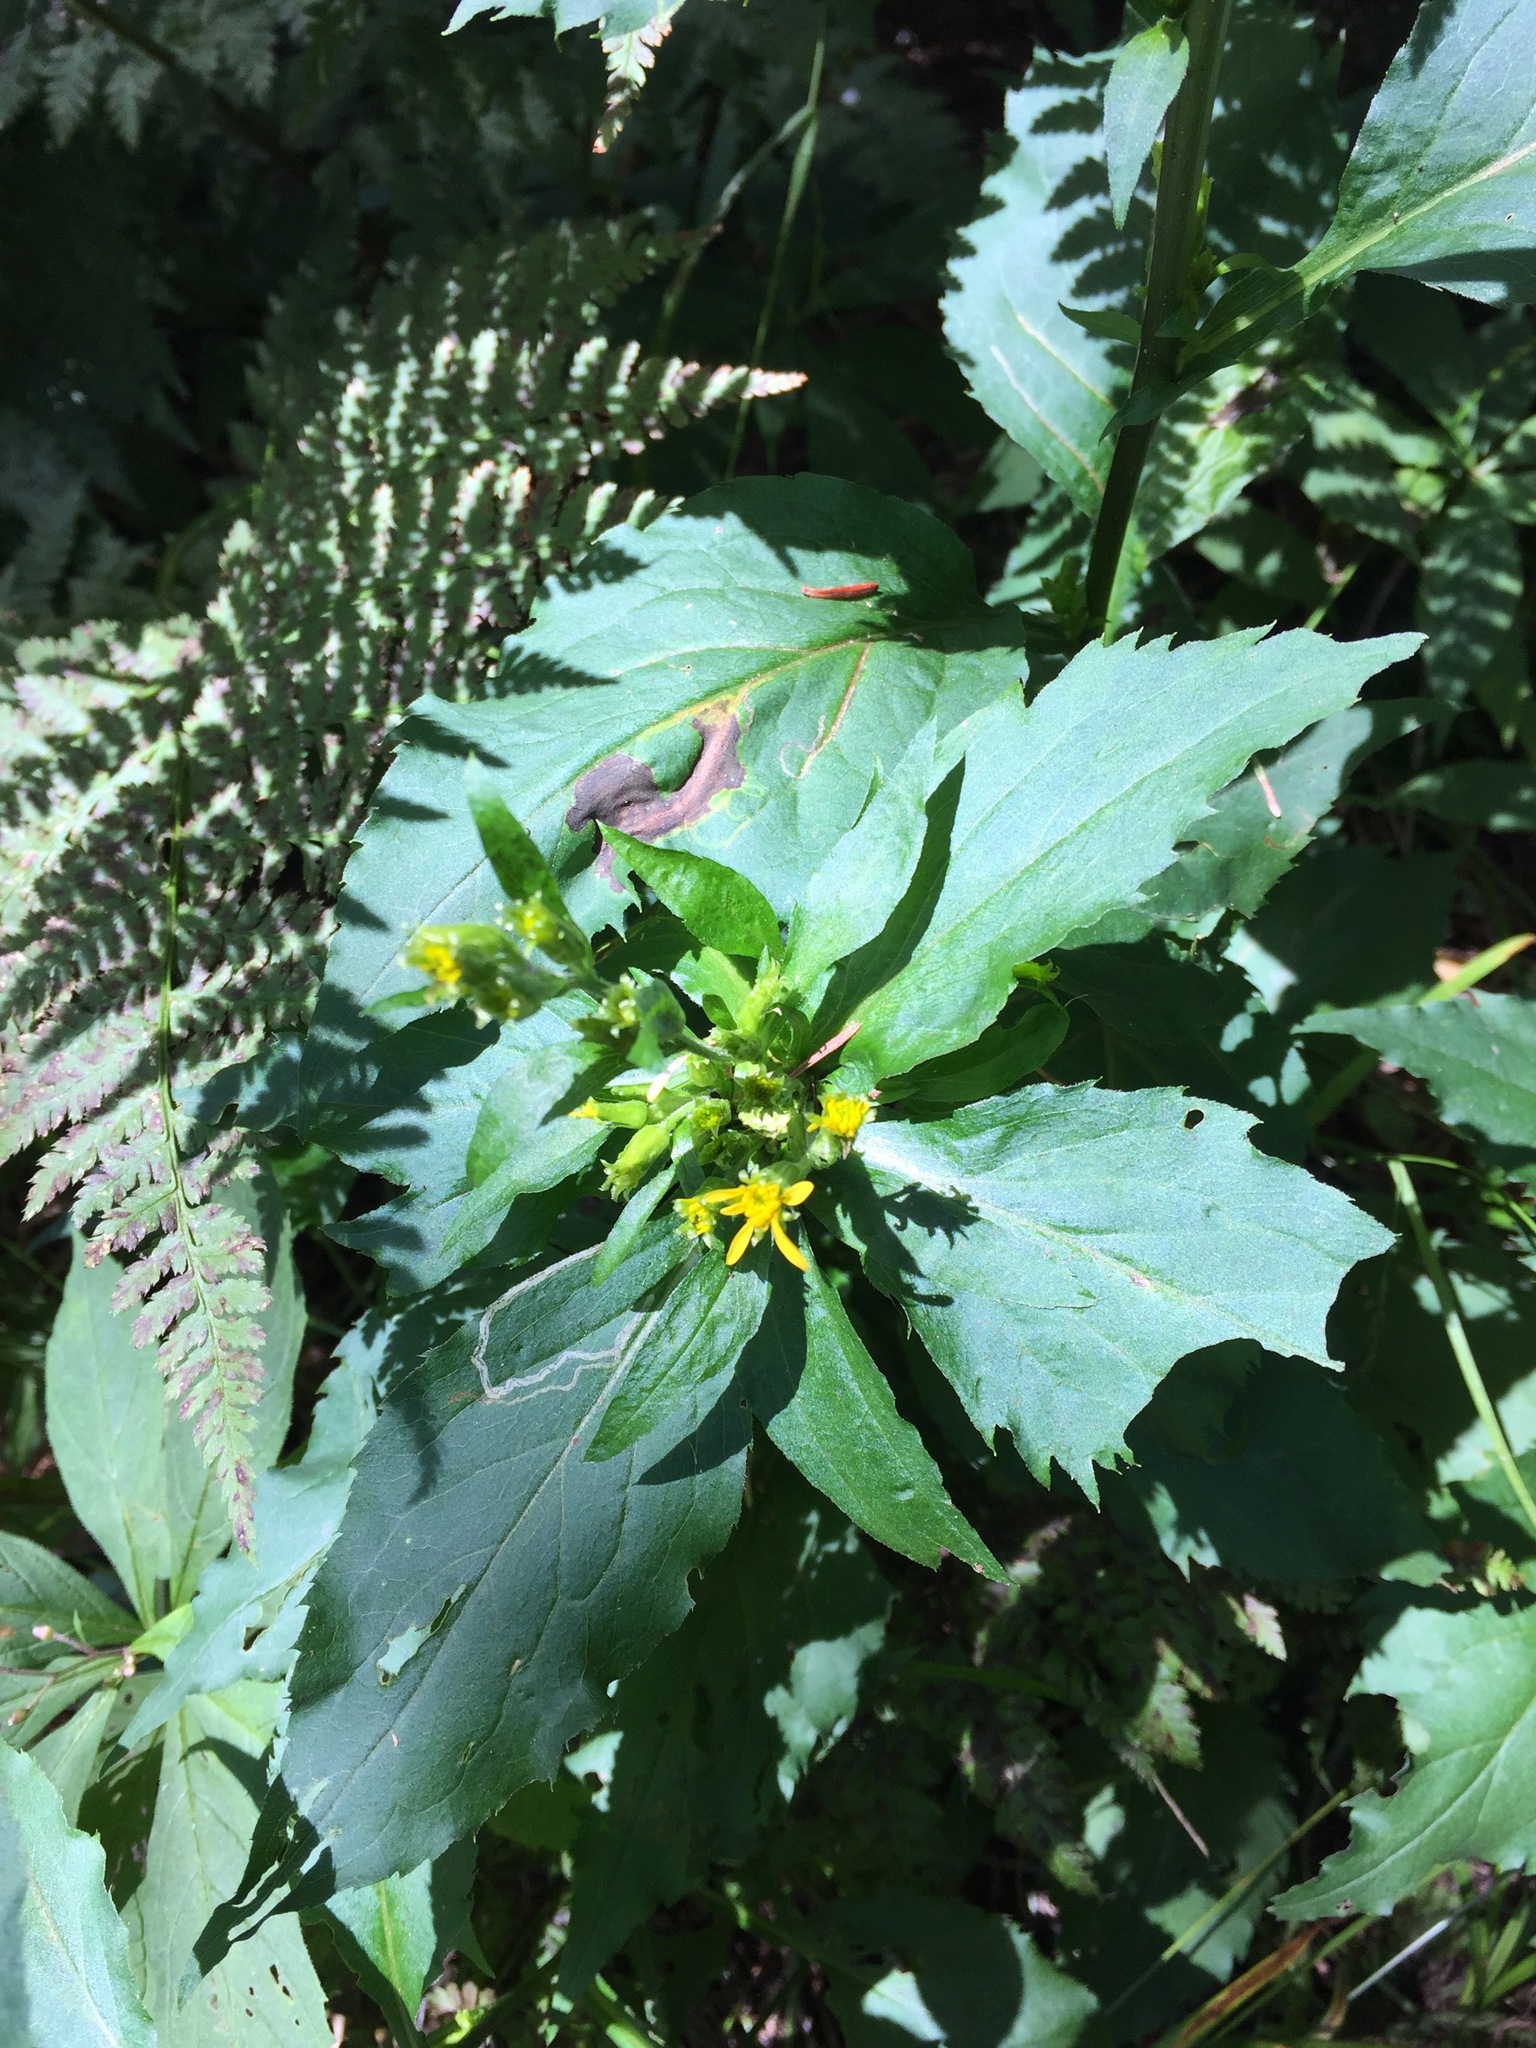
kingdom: Plantae
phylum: Tracheophyta
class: Magnoliopsida
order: Asterales
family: Asteraceae
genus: Solidago
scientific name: Solidago flexicaulis
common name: Zig-zag goldenrod
